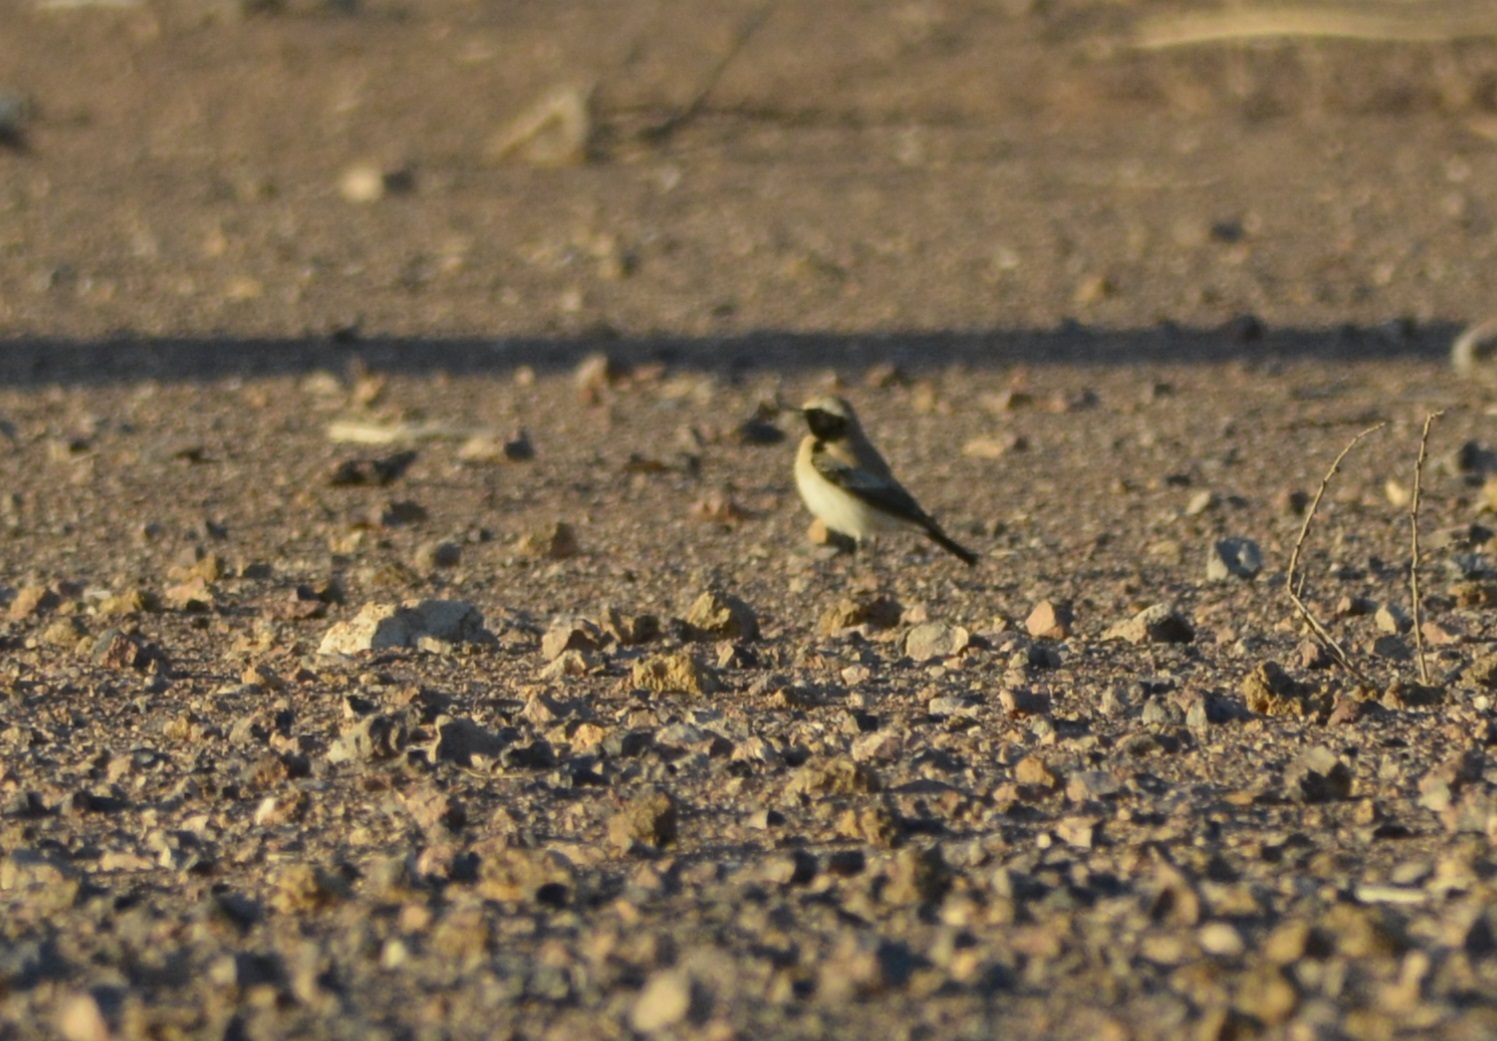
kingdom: Animalia
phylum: Chordata
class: Aves
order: Passeriformes
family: Muscicapidae
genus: Oenanthe
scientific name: Oenanthe deserti
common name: Desert wheatear
